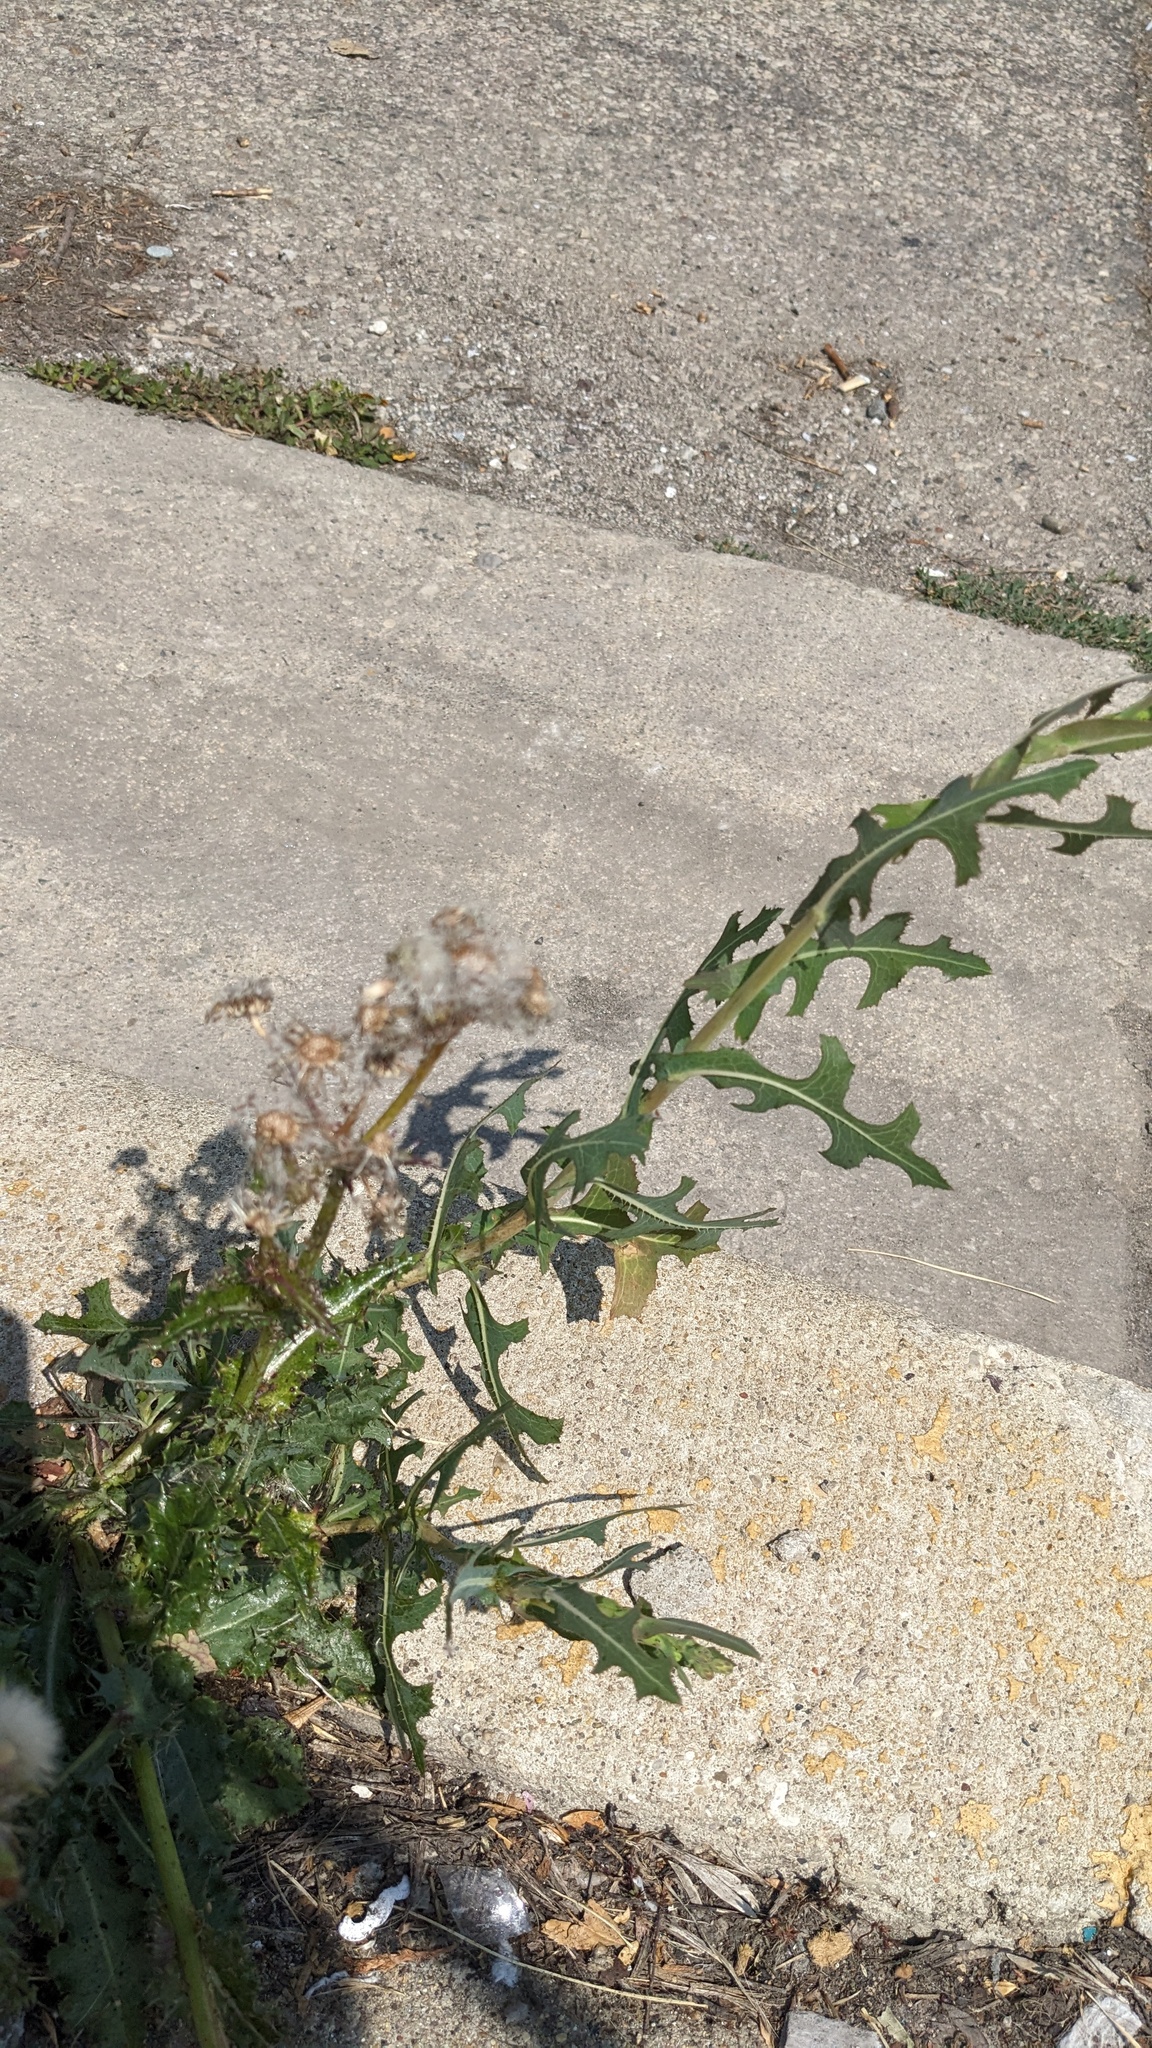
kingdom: Plantae
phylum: Tracheophyta
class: Magnoliopsida
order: Asterales
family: Asteraceae
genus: Lactuca
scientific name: Lactuca serriola
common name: Prickly lettuce
